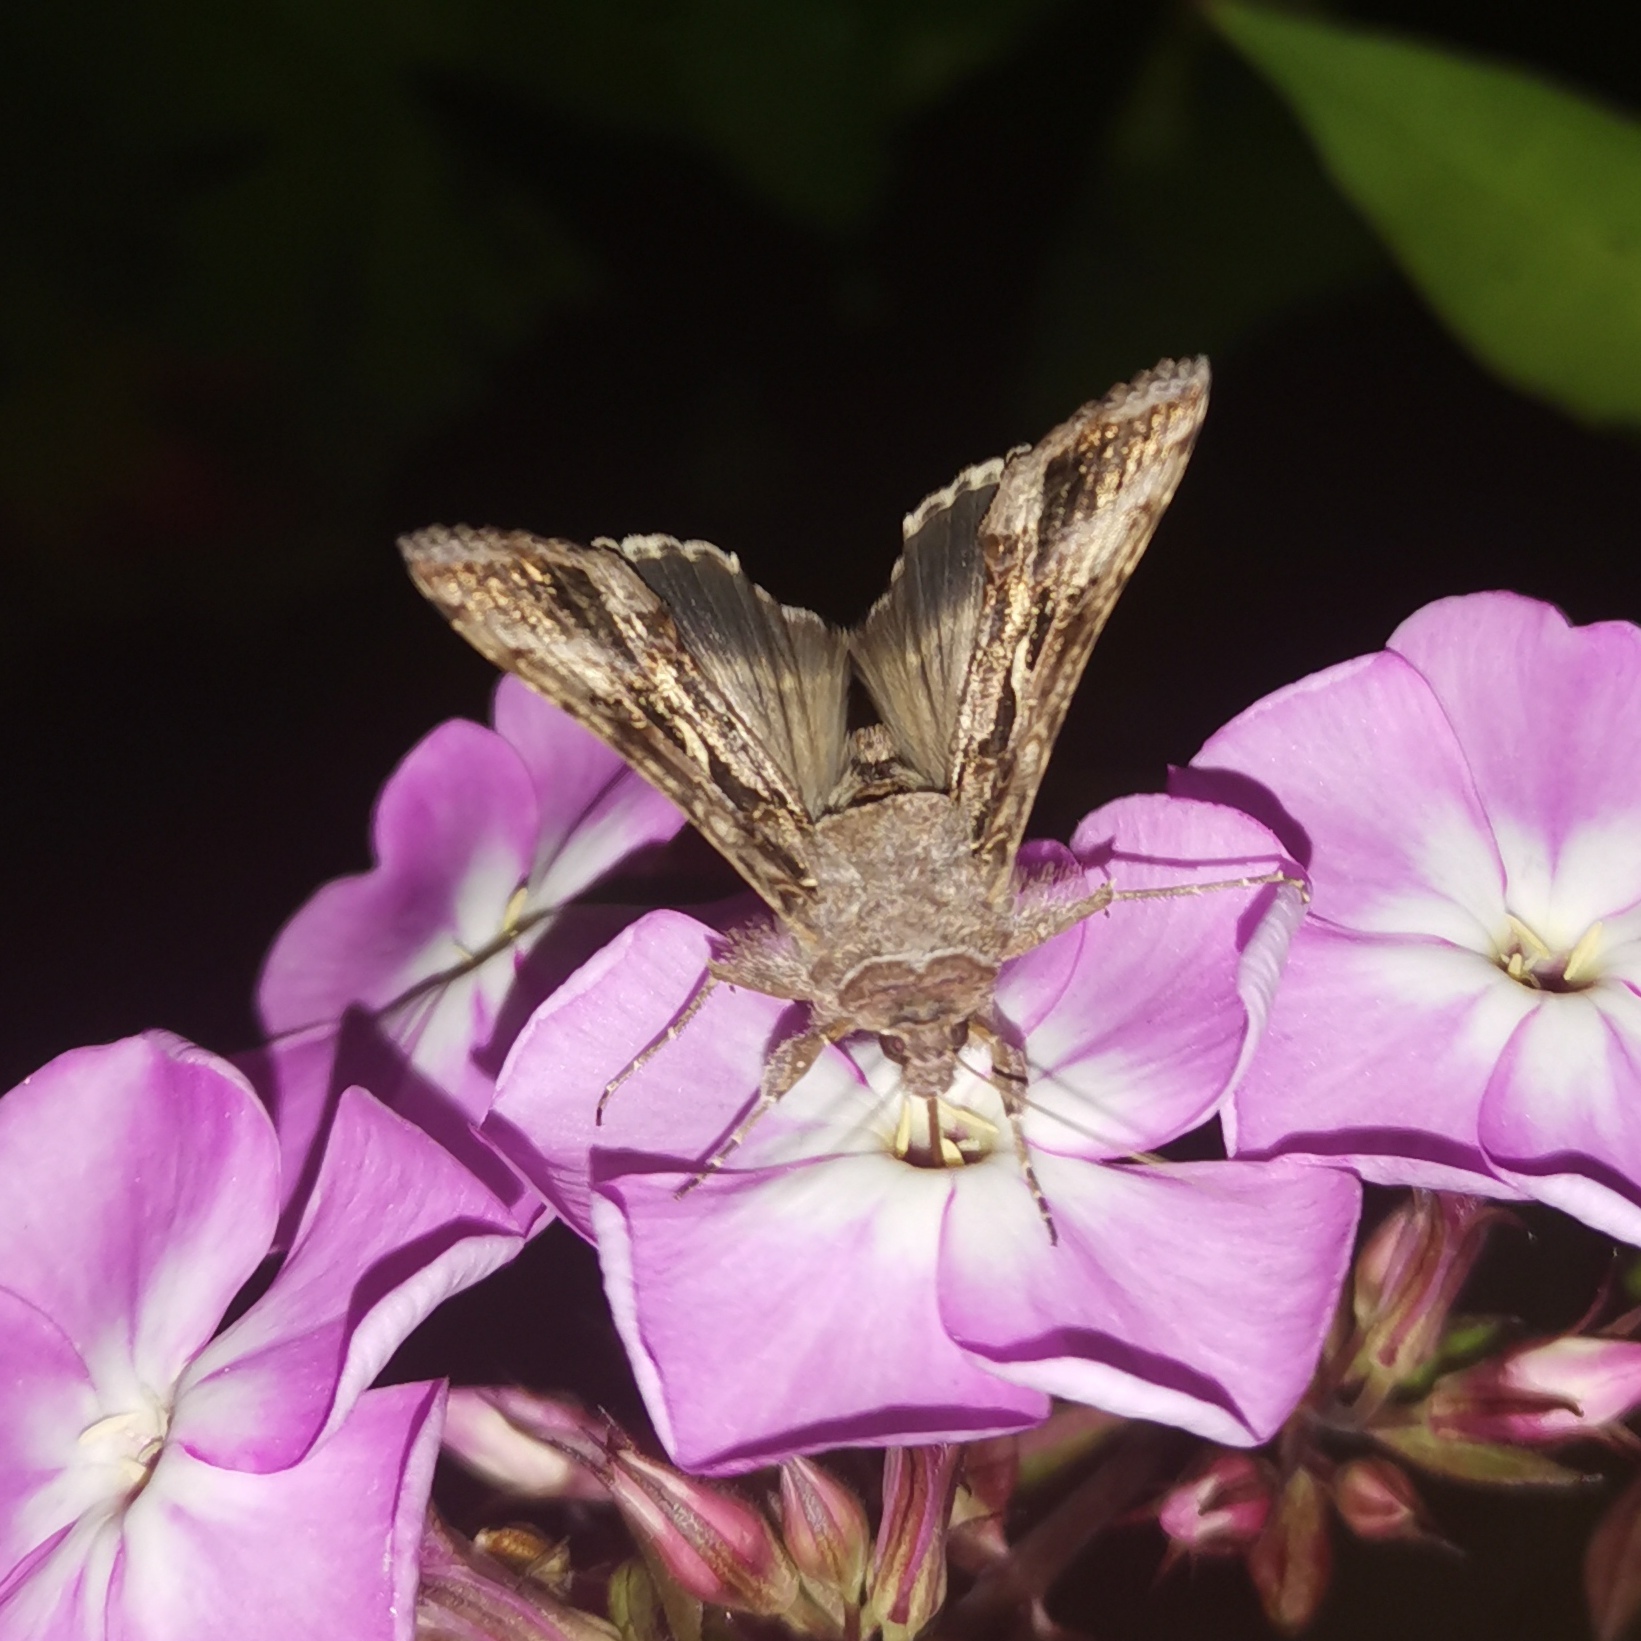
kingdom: Animalia
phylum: Arthropoda
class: Insecta
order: Lepidoptera
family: Noctuidae
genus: Autographa
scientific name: Autographa gamma
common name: Silver y
